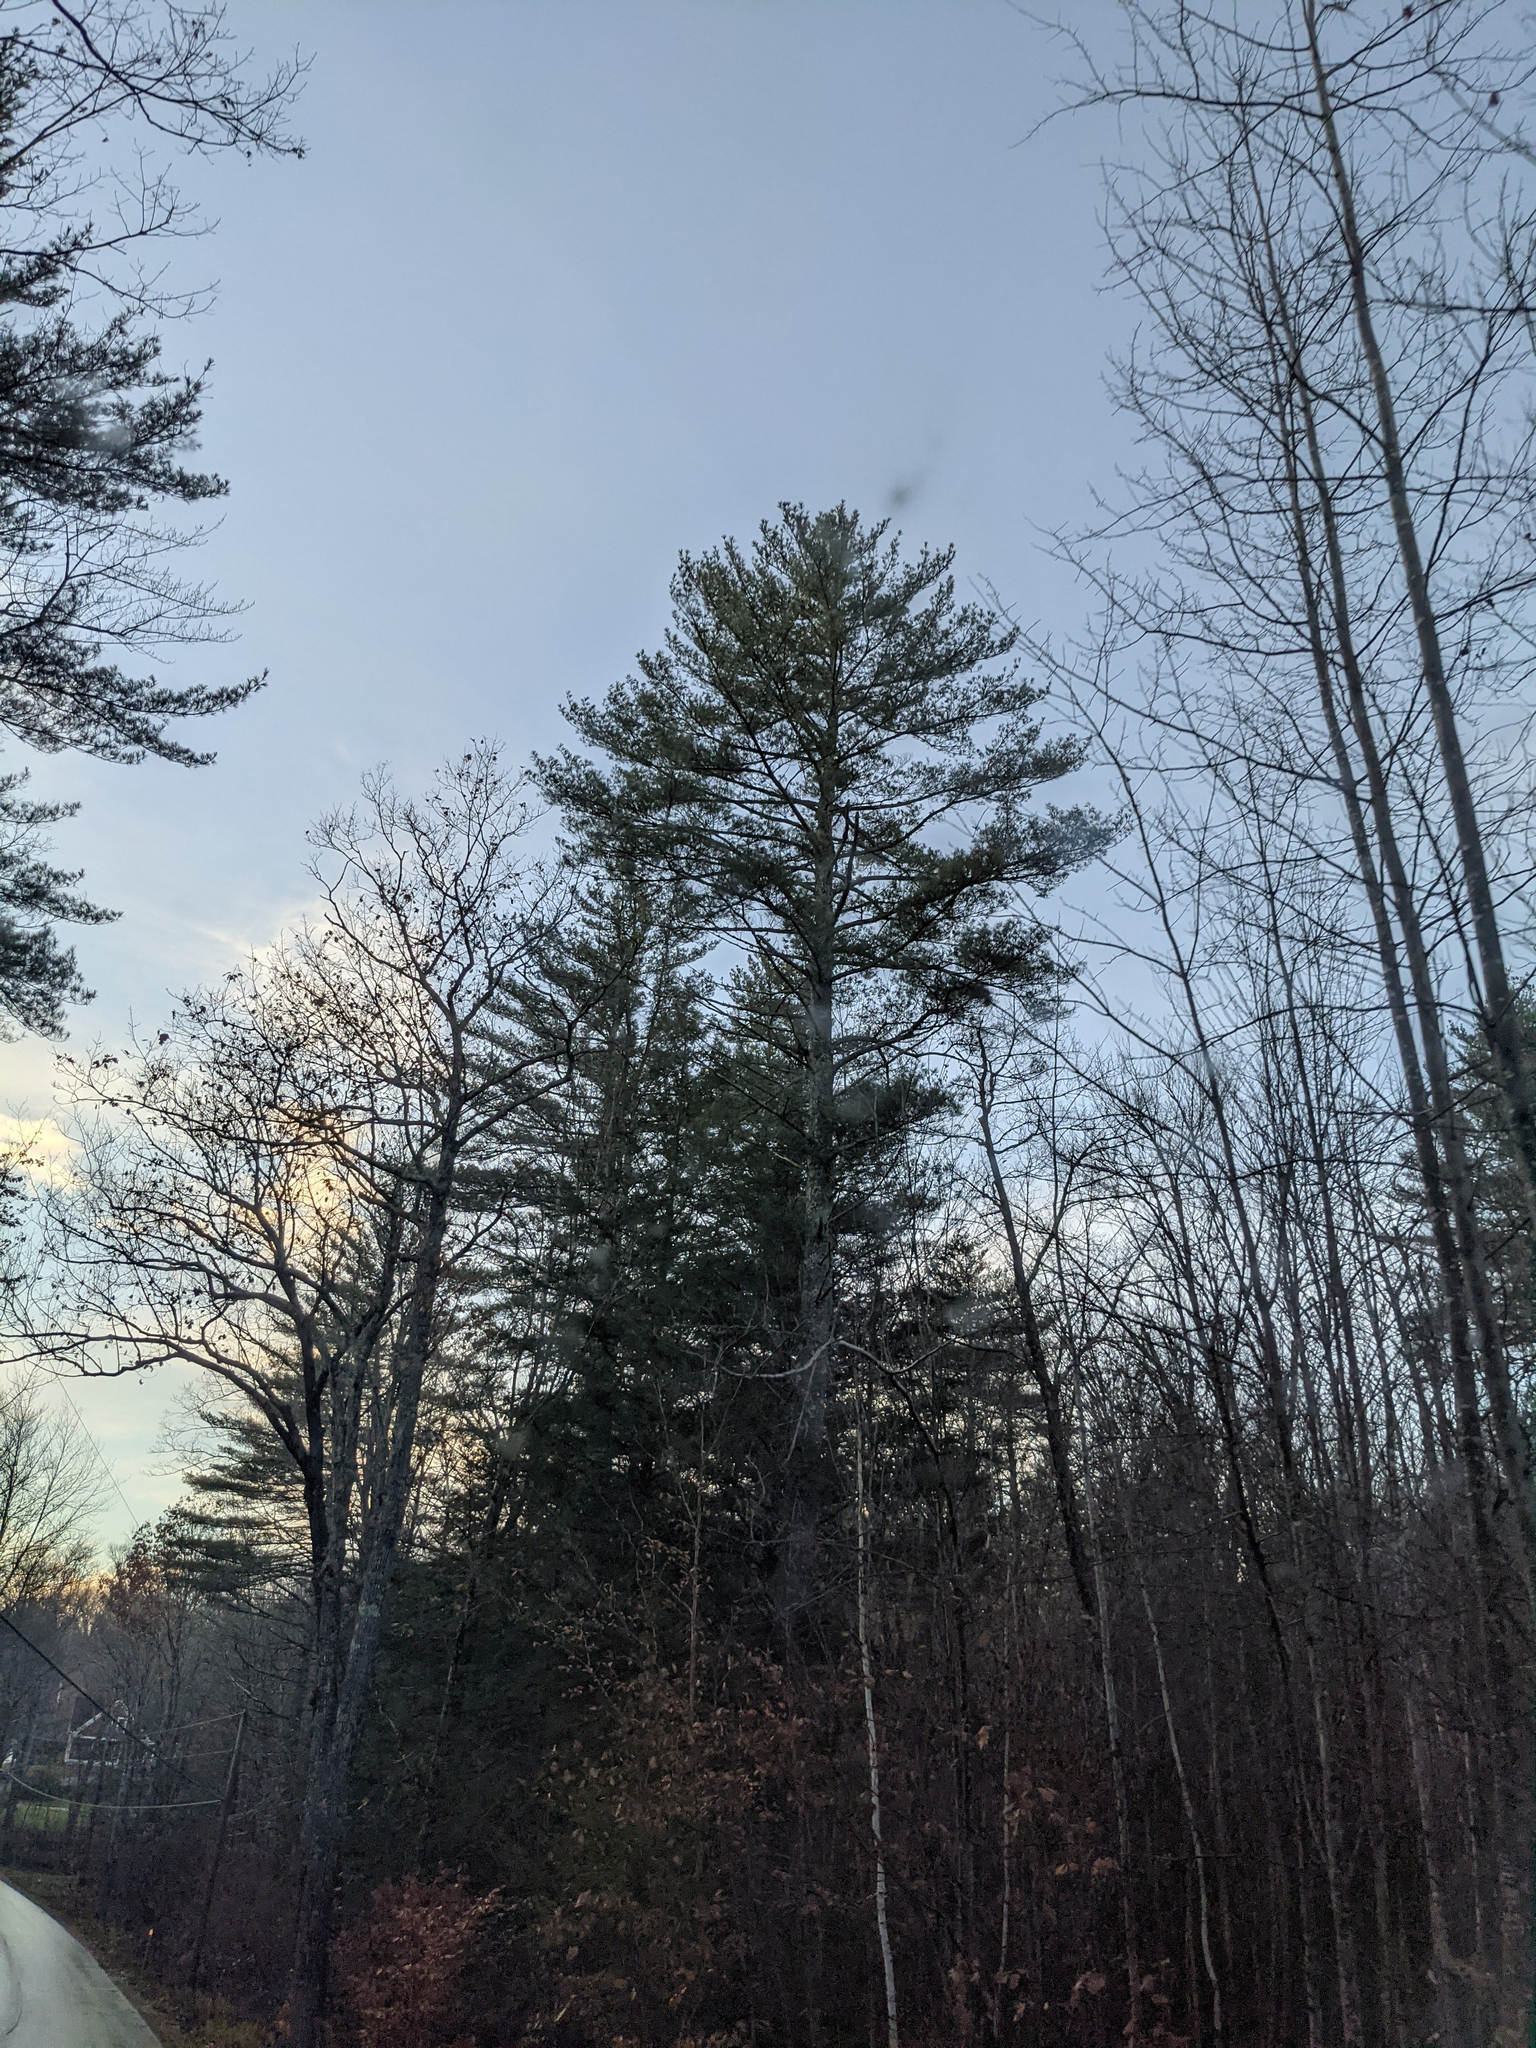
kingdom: Plantae
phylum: Tracheophyta
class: Pinopsida
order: Pinales
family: Pinaceae
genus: Pinus
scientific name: Pinus strobus
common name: Weymouth pine
